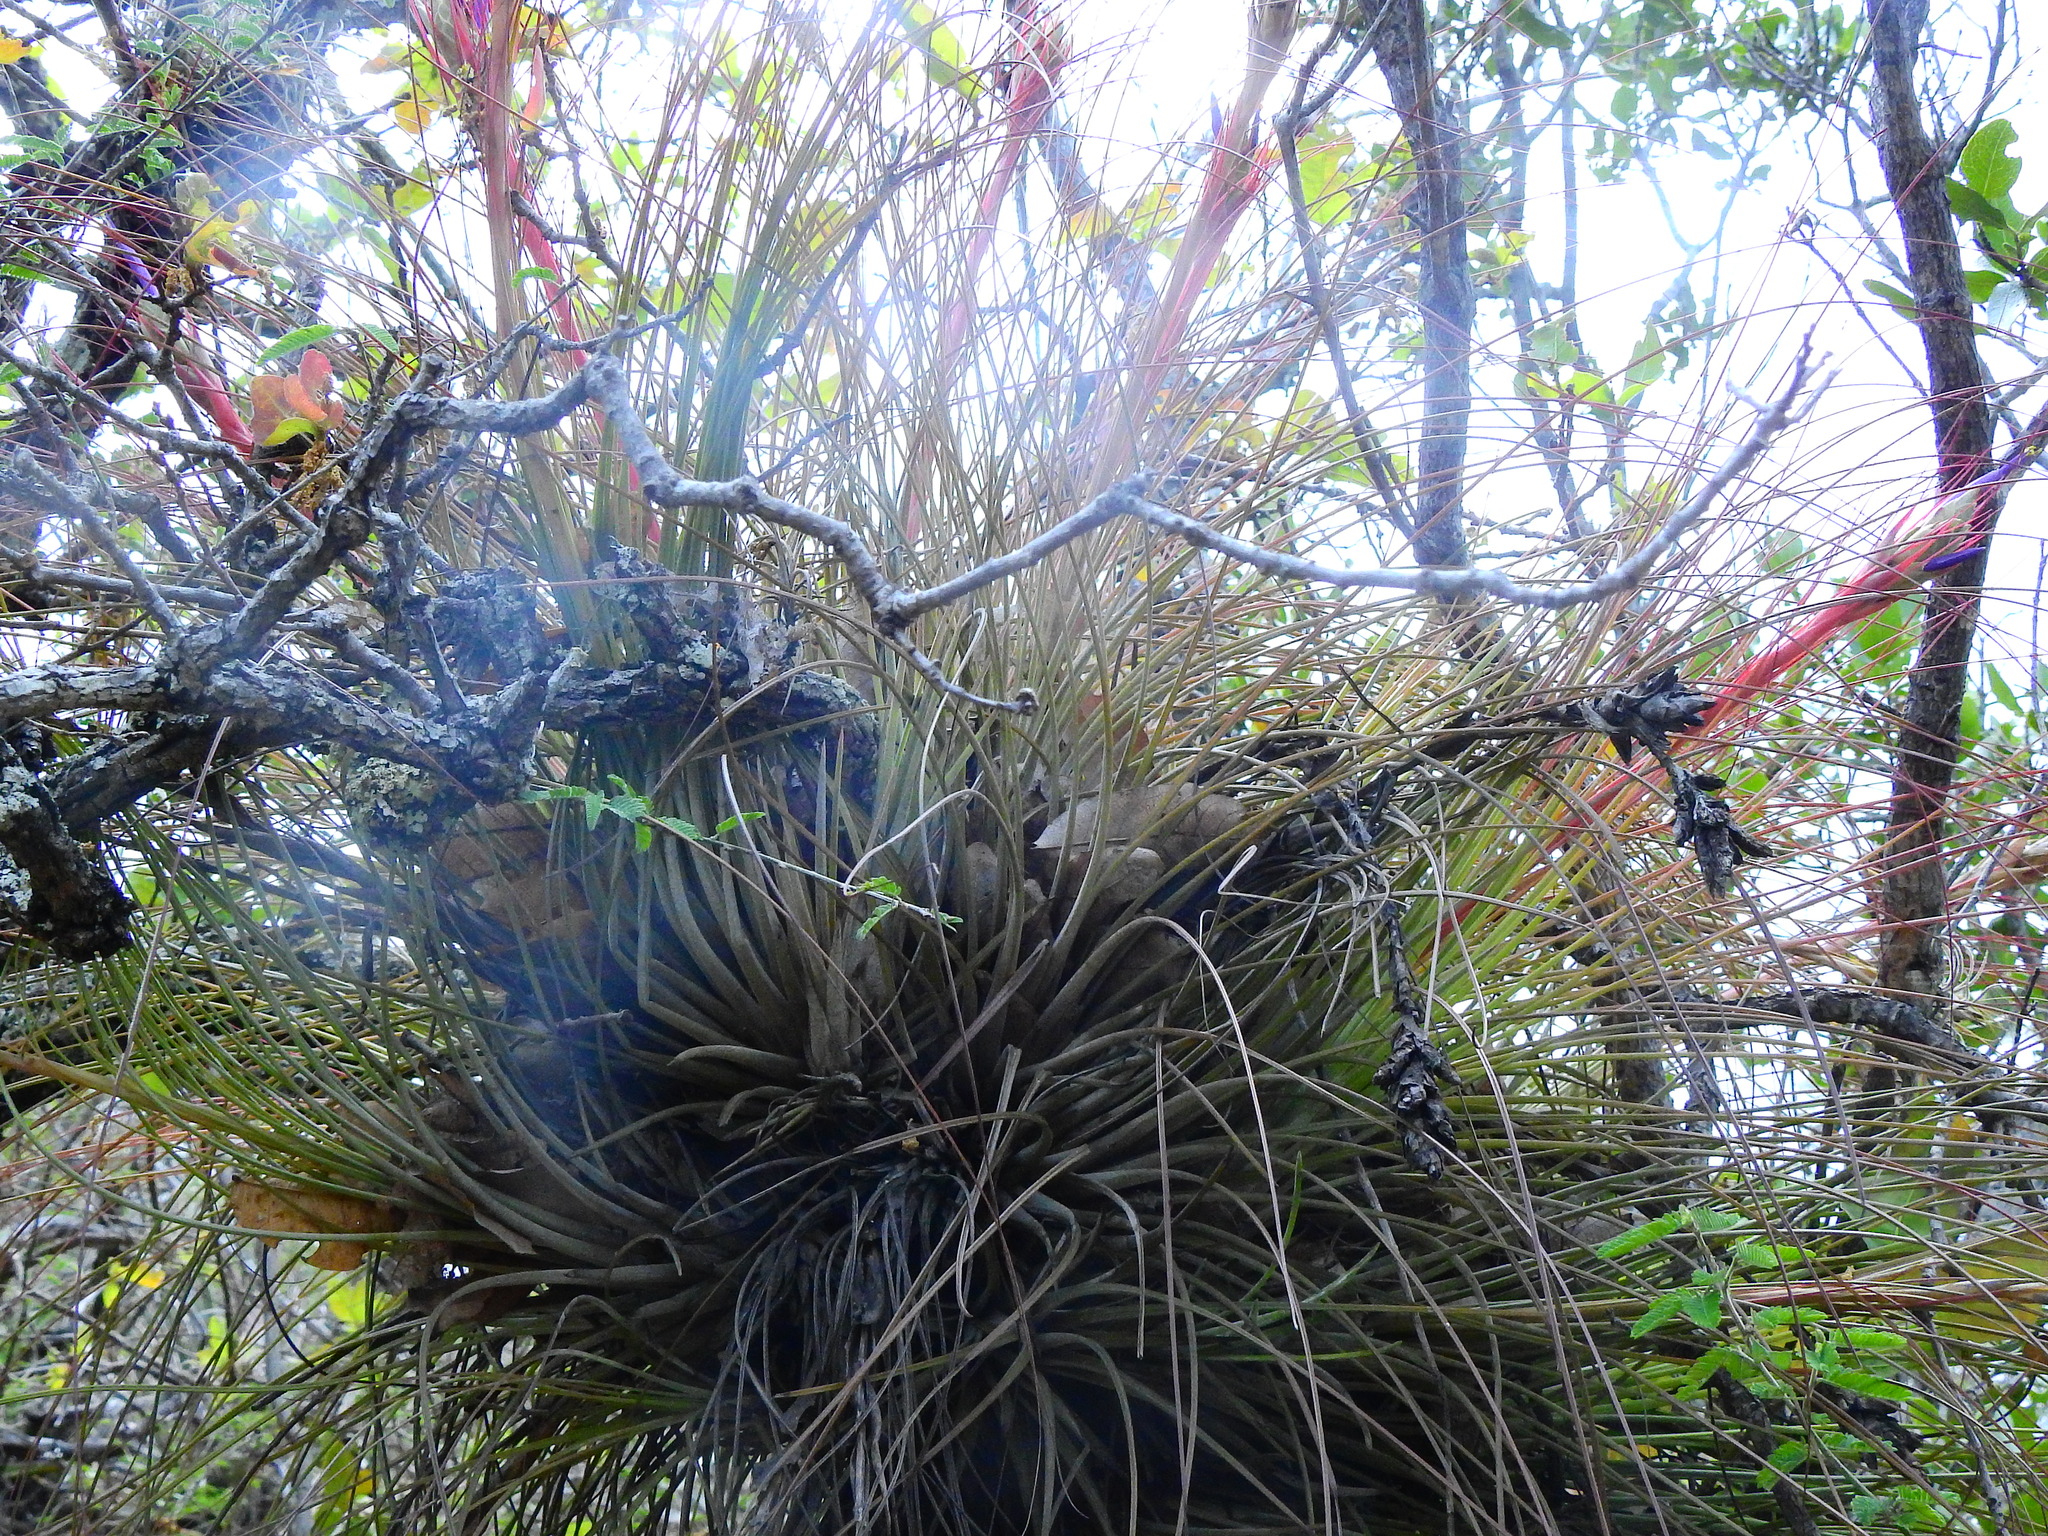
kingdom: Plantae
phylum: Tracheophyta
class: Liliopsida
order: Poales
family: Bromeliaceae
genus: Tillandsia
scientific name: Tillandsia juncea
